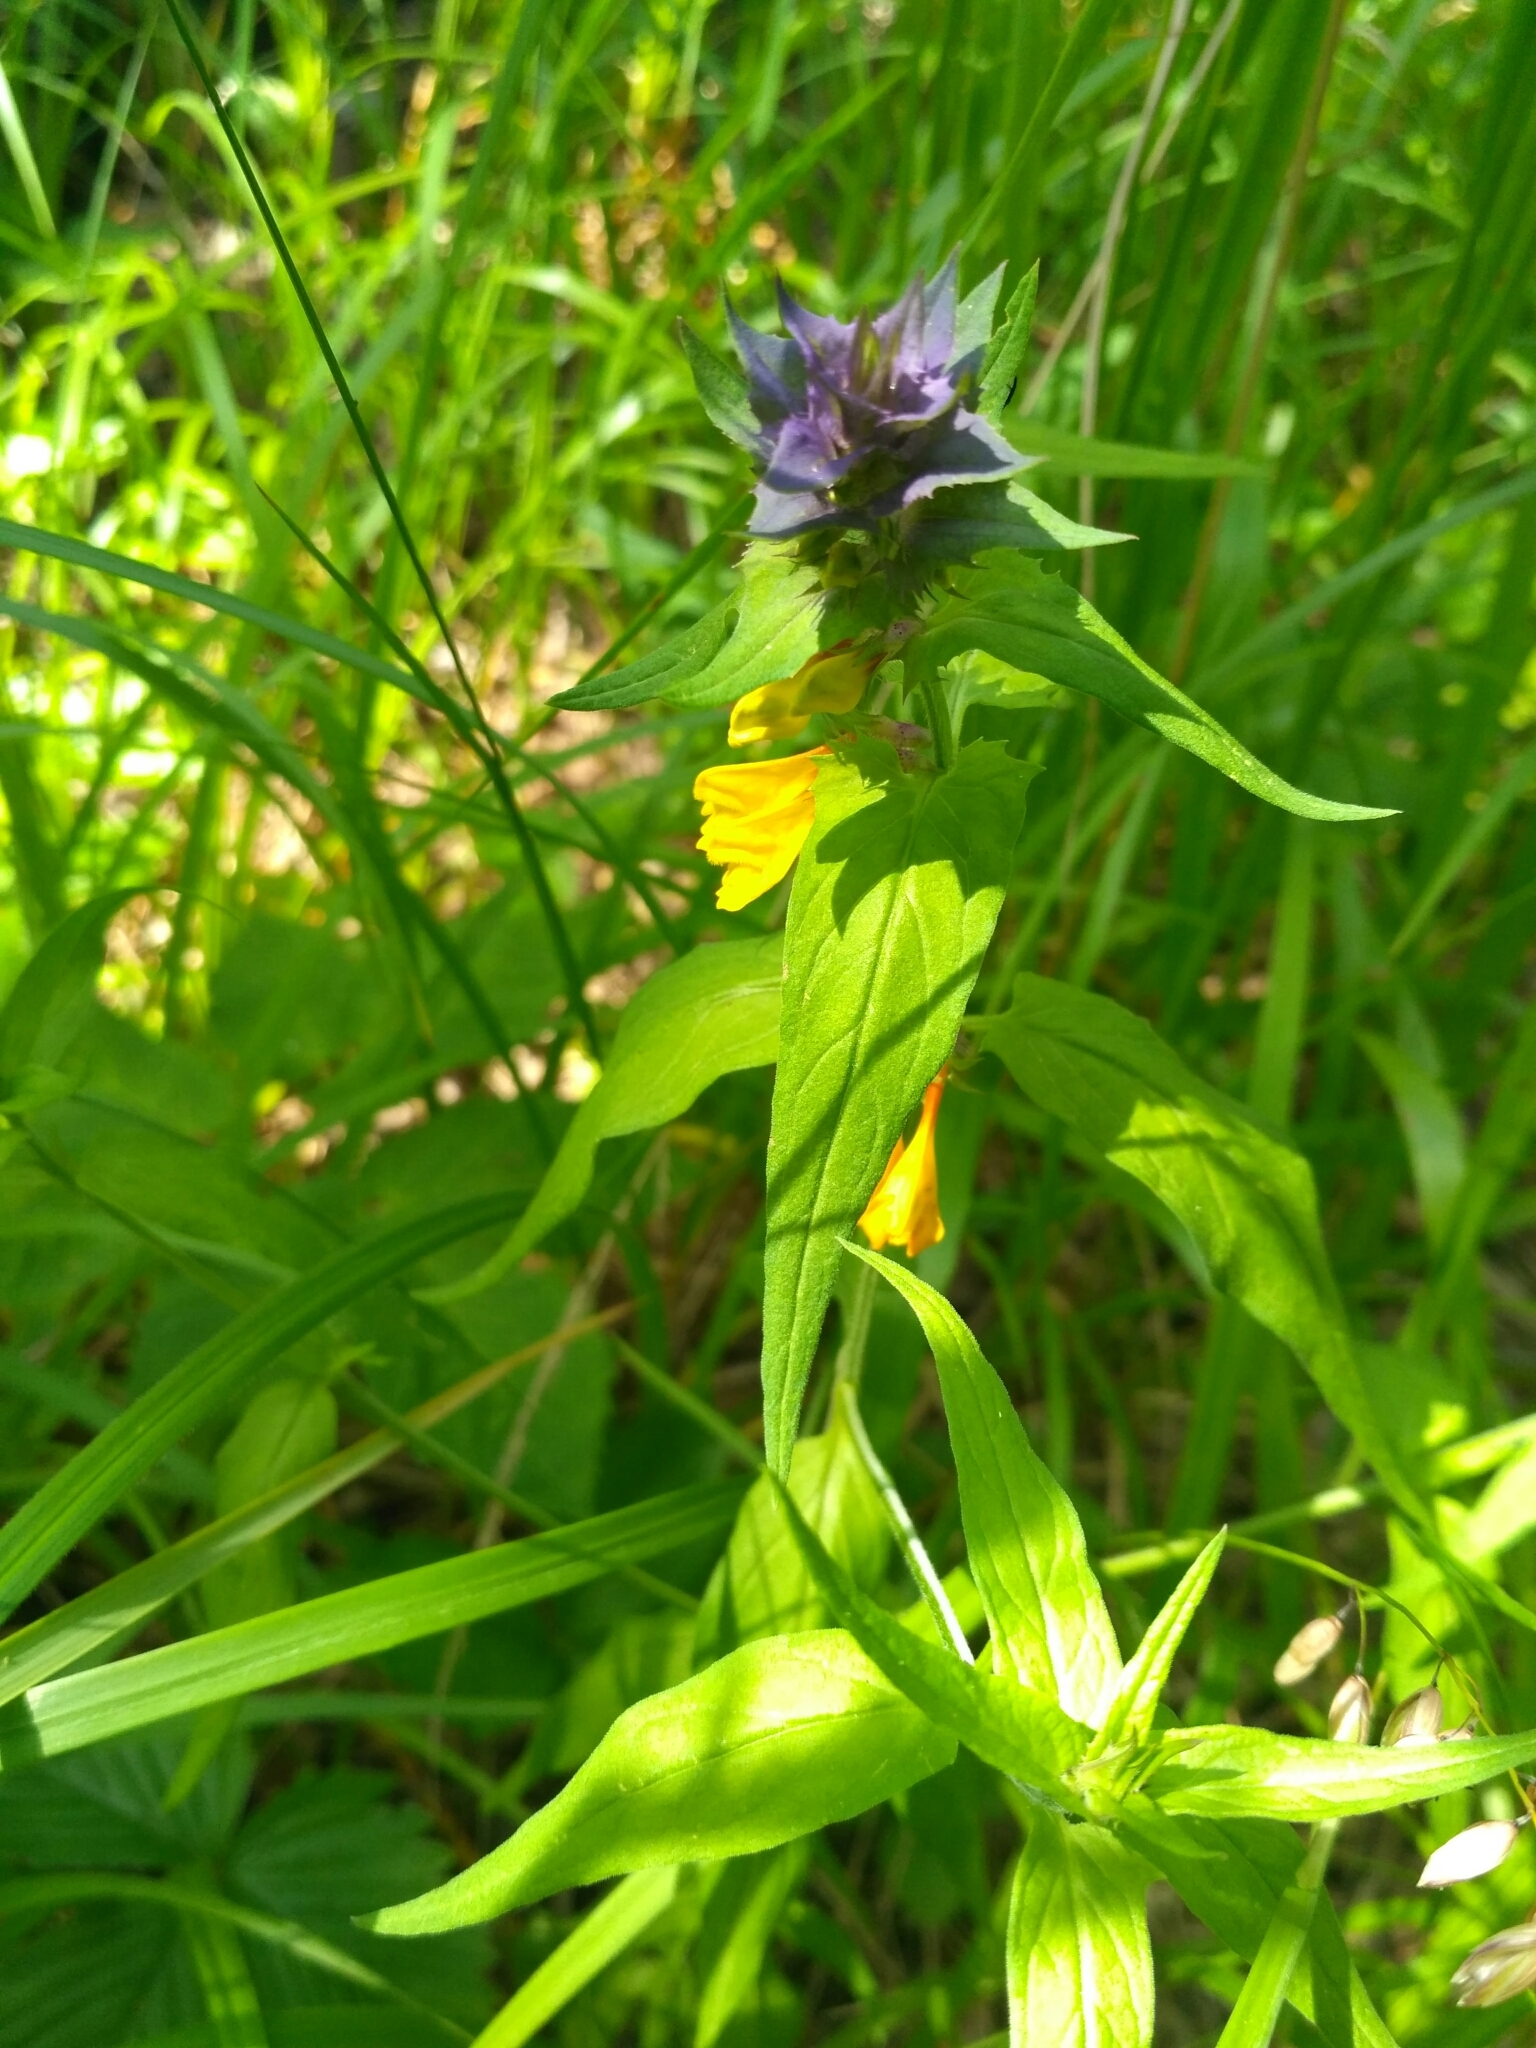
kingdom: Plantae
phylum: Tracheophyta
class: Magnoliopsida
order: Lamiales
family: Orobanchaceae
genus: Melampyrum
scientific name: Melampyrum nemorosum
